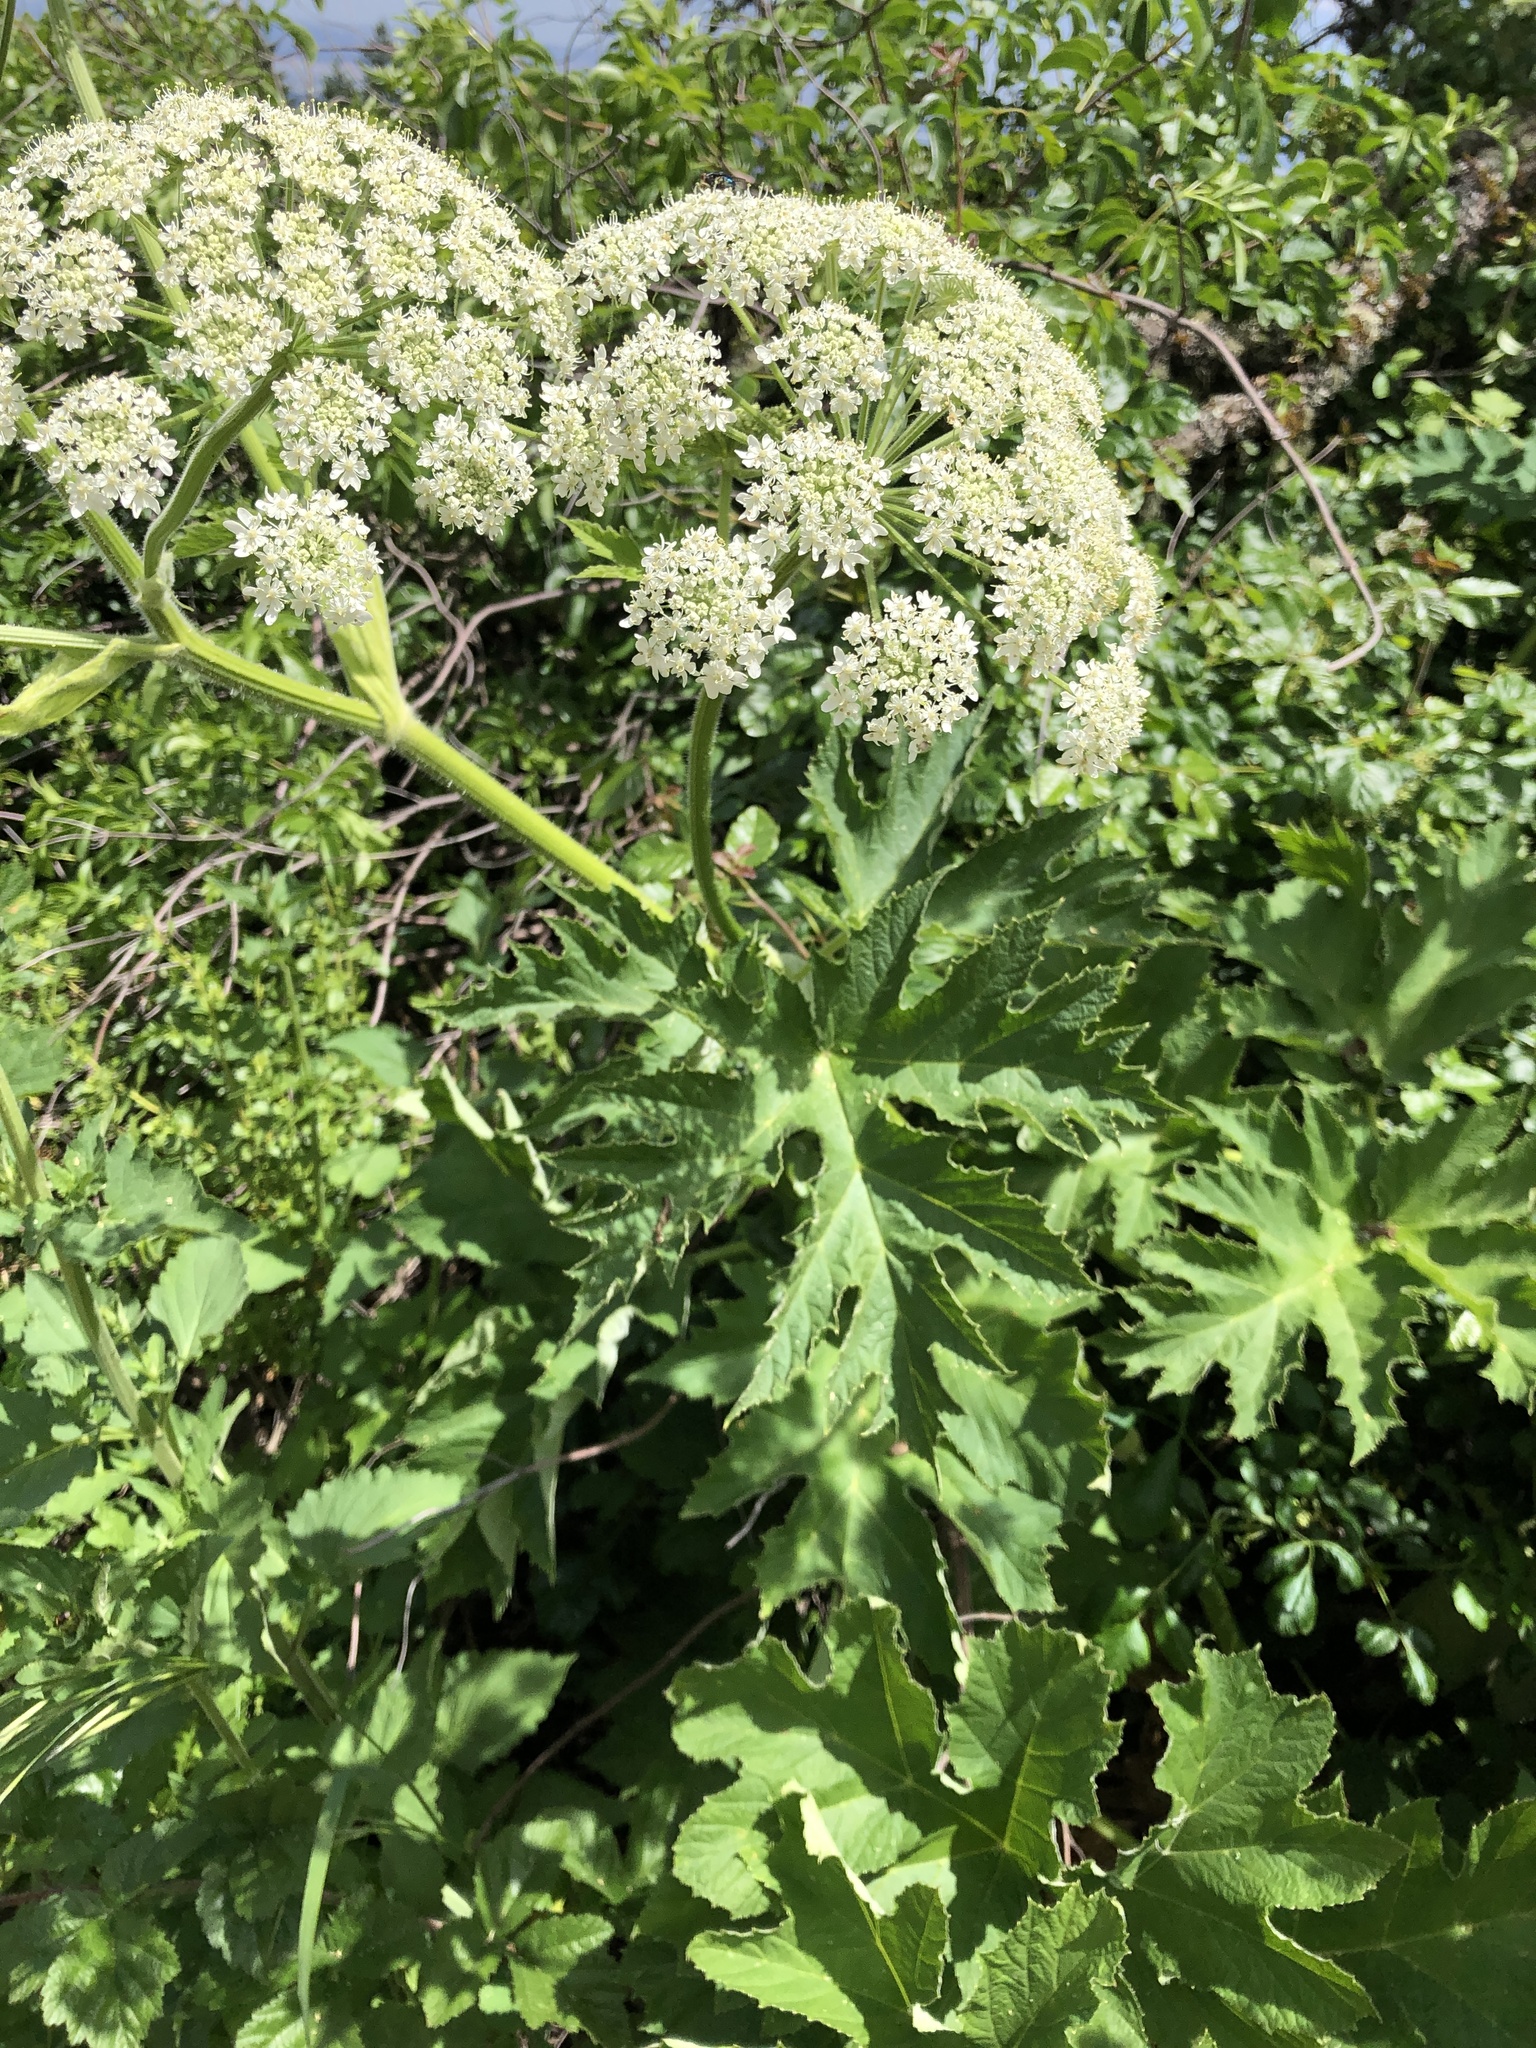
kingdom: Plantae
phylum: Tracheophyta
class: Magnoliopsida
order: Apiales
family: Apiaceae
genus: Heracleum
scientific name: Heracleum maximum
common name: American cow parsnip
